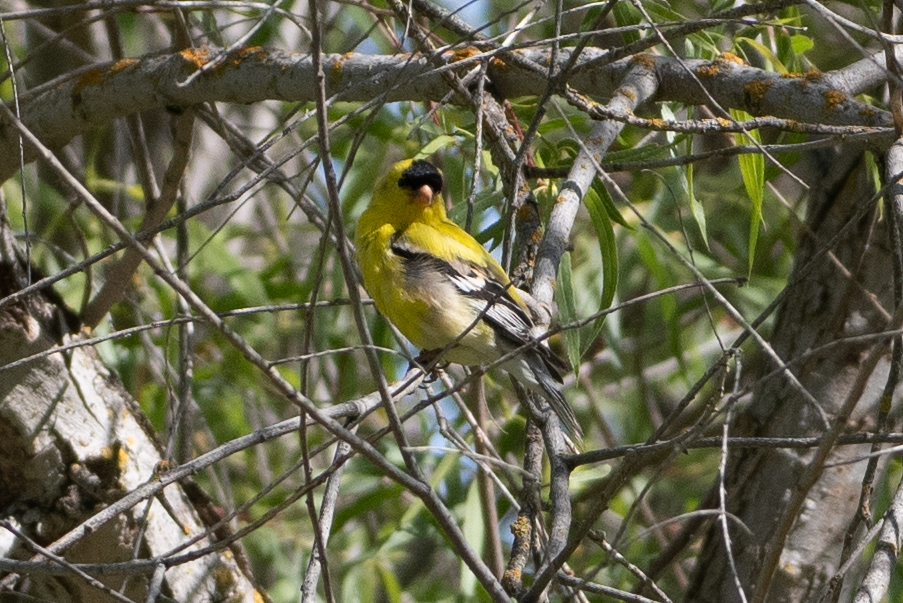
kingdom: Animalia
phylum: Chordata
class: Aves
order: Passeriformes
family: Fringillidae
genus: Spinus
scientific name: Spinus tristis
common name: American goldfinch
